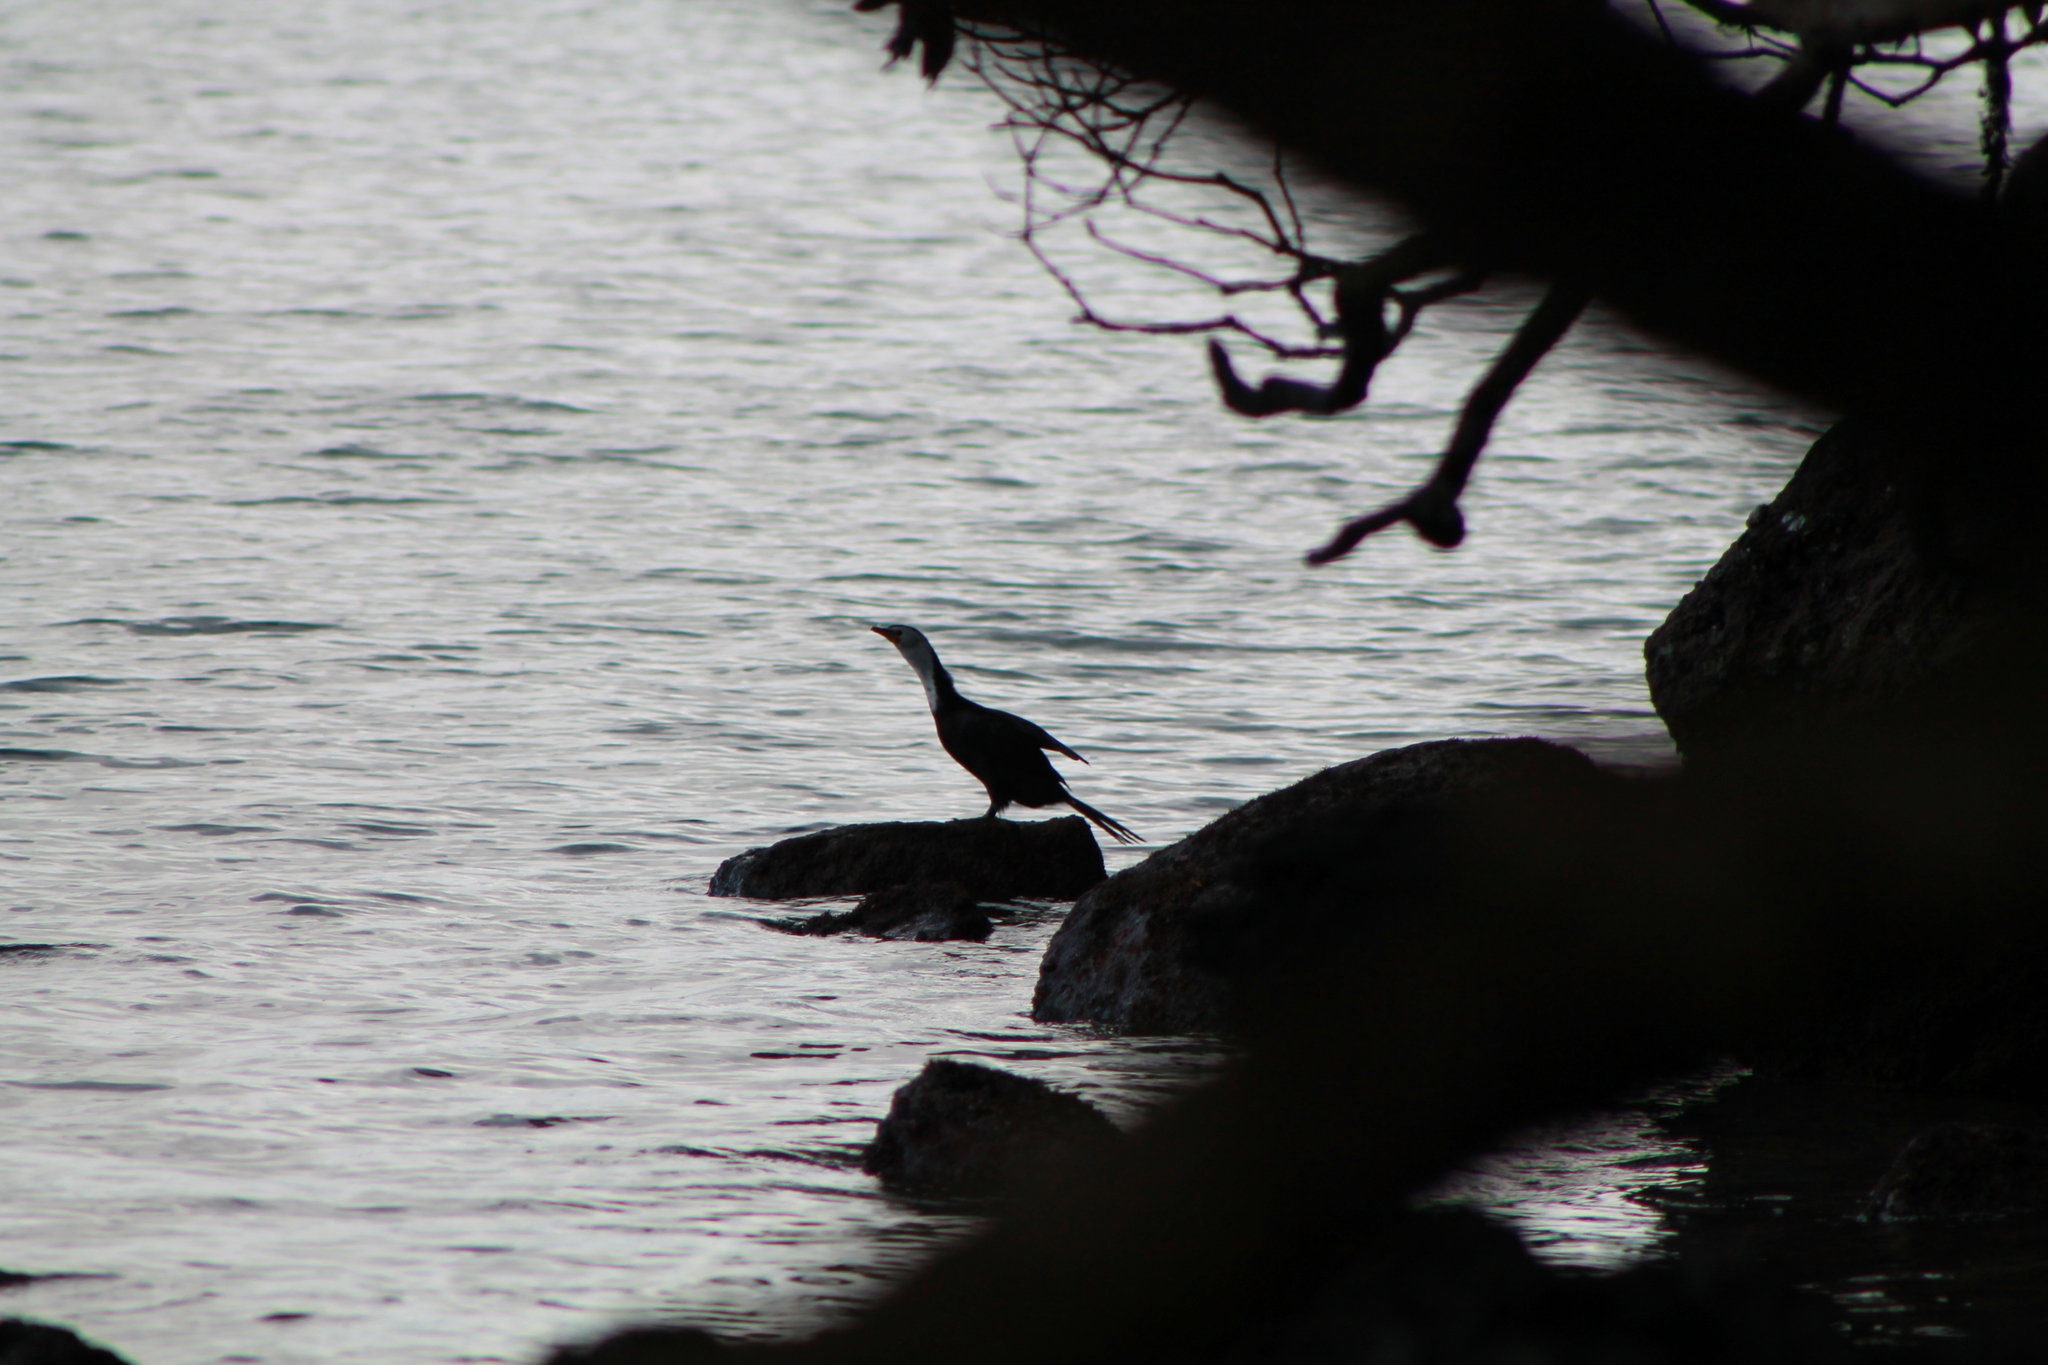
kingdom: Animalia
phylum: Chordata
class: Aves
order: Suliformes
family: Phalacrocoracidae
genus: Microcarbo
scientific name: Microcarbo melanoleucos
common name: Little pied cormorant
